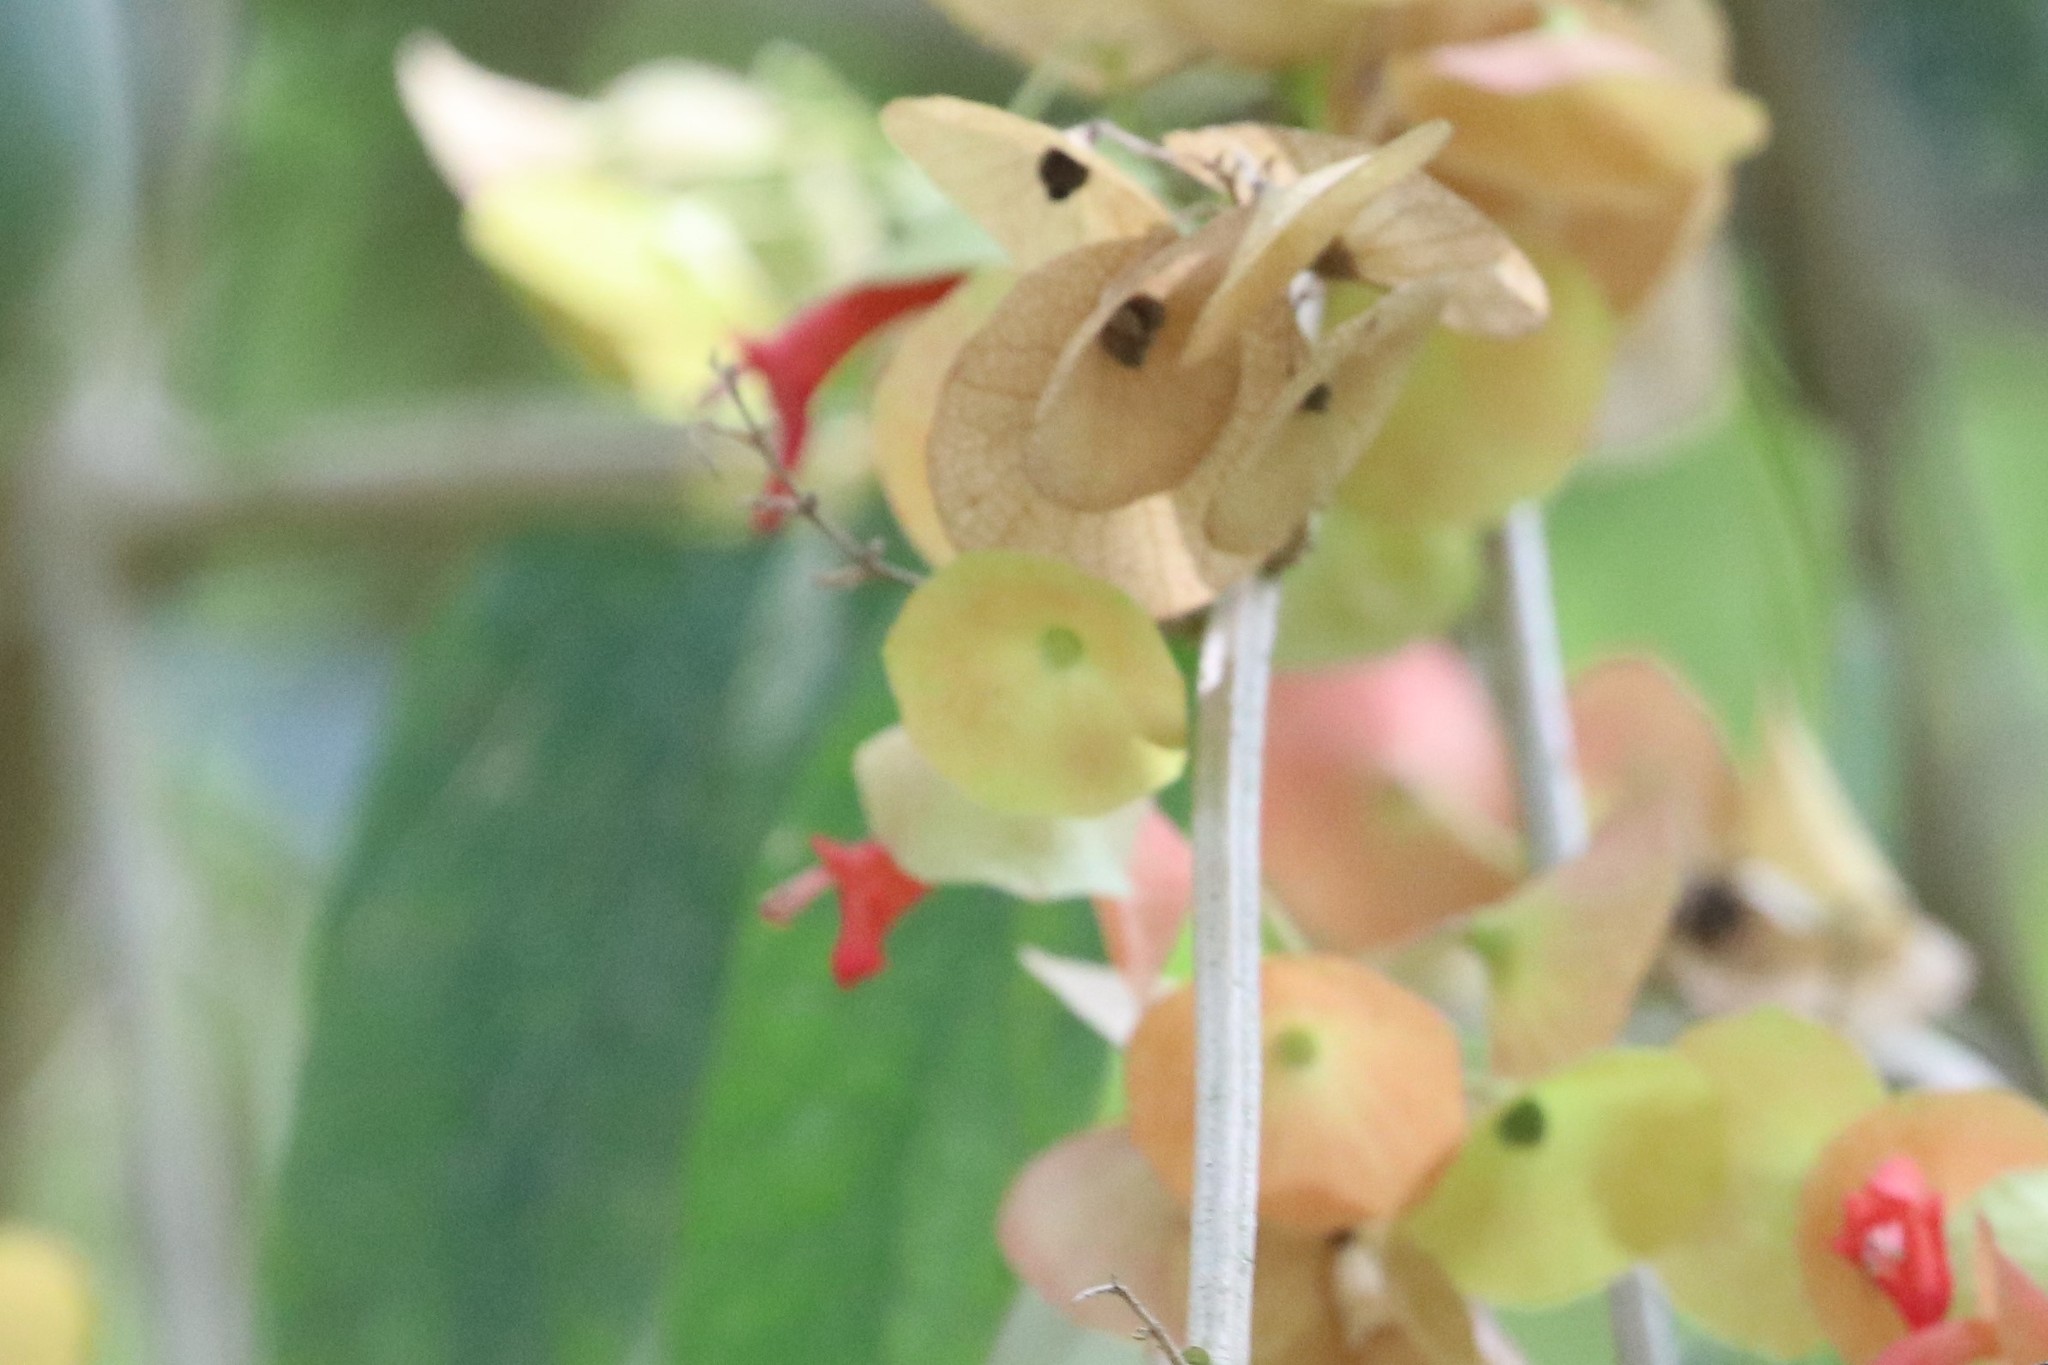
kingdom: Plantae
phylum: Tracheophyta
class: Magnoliopsida
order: Lamiales
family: Lamiaceae
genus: Holmskioldia
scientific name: Holmskioldia sanguinea
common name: Chinese hatplant
